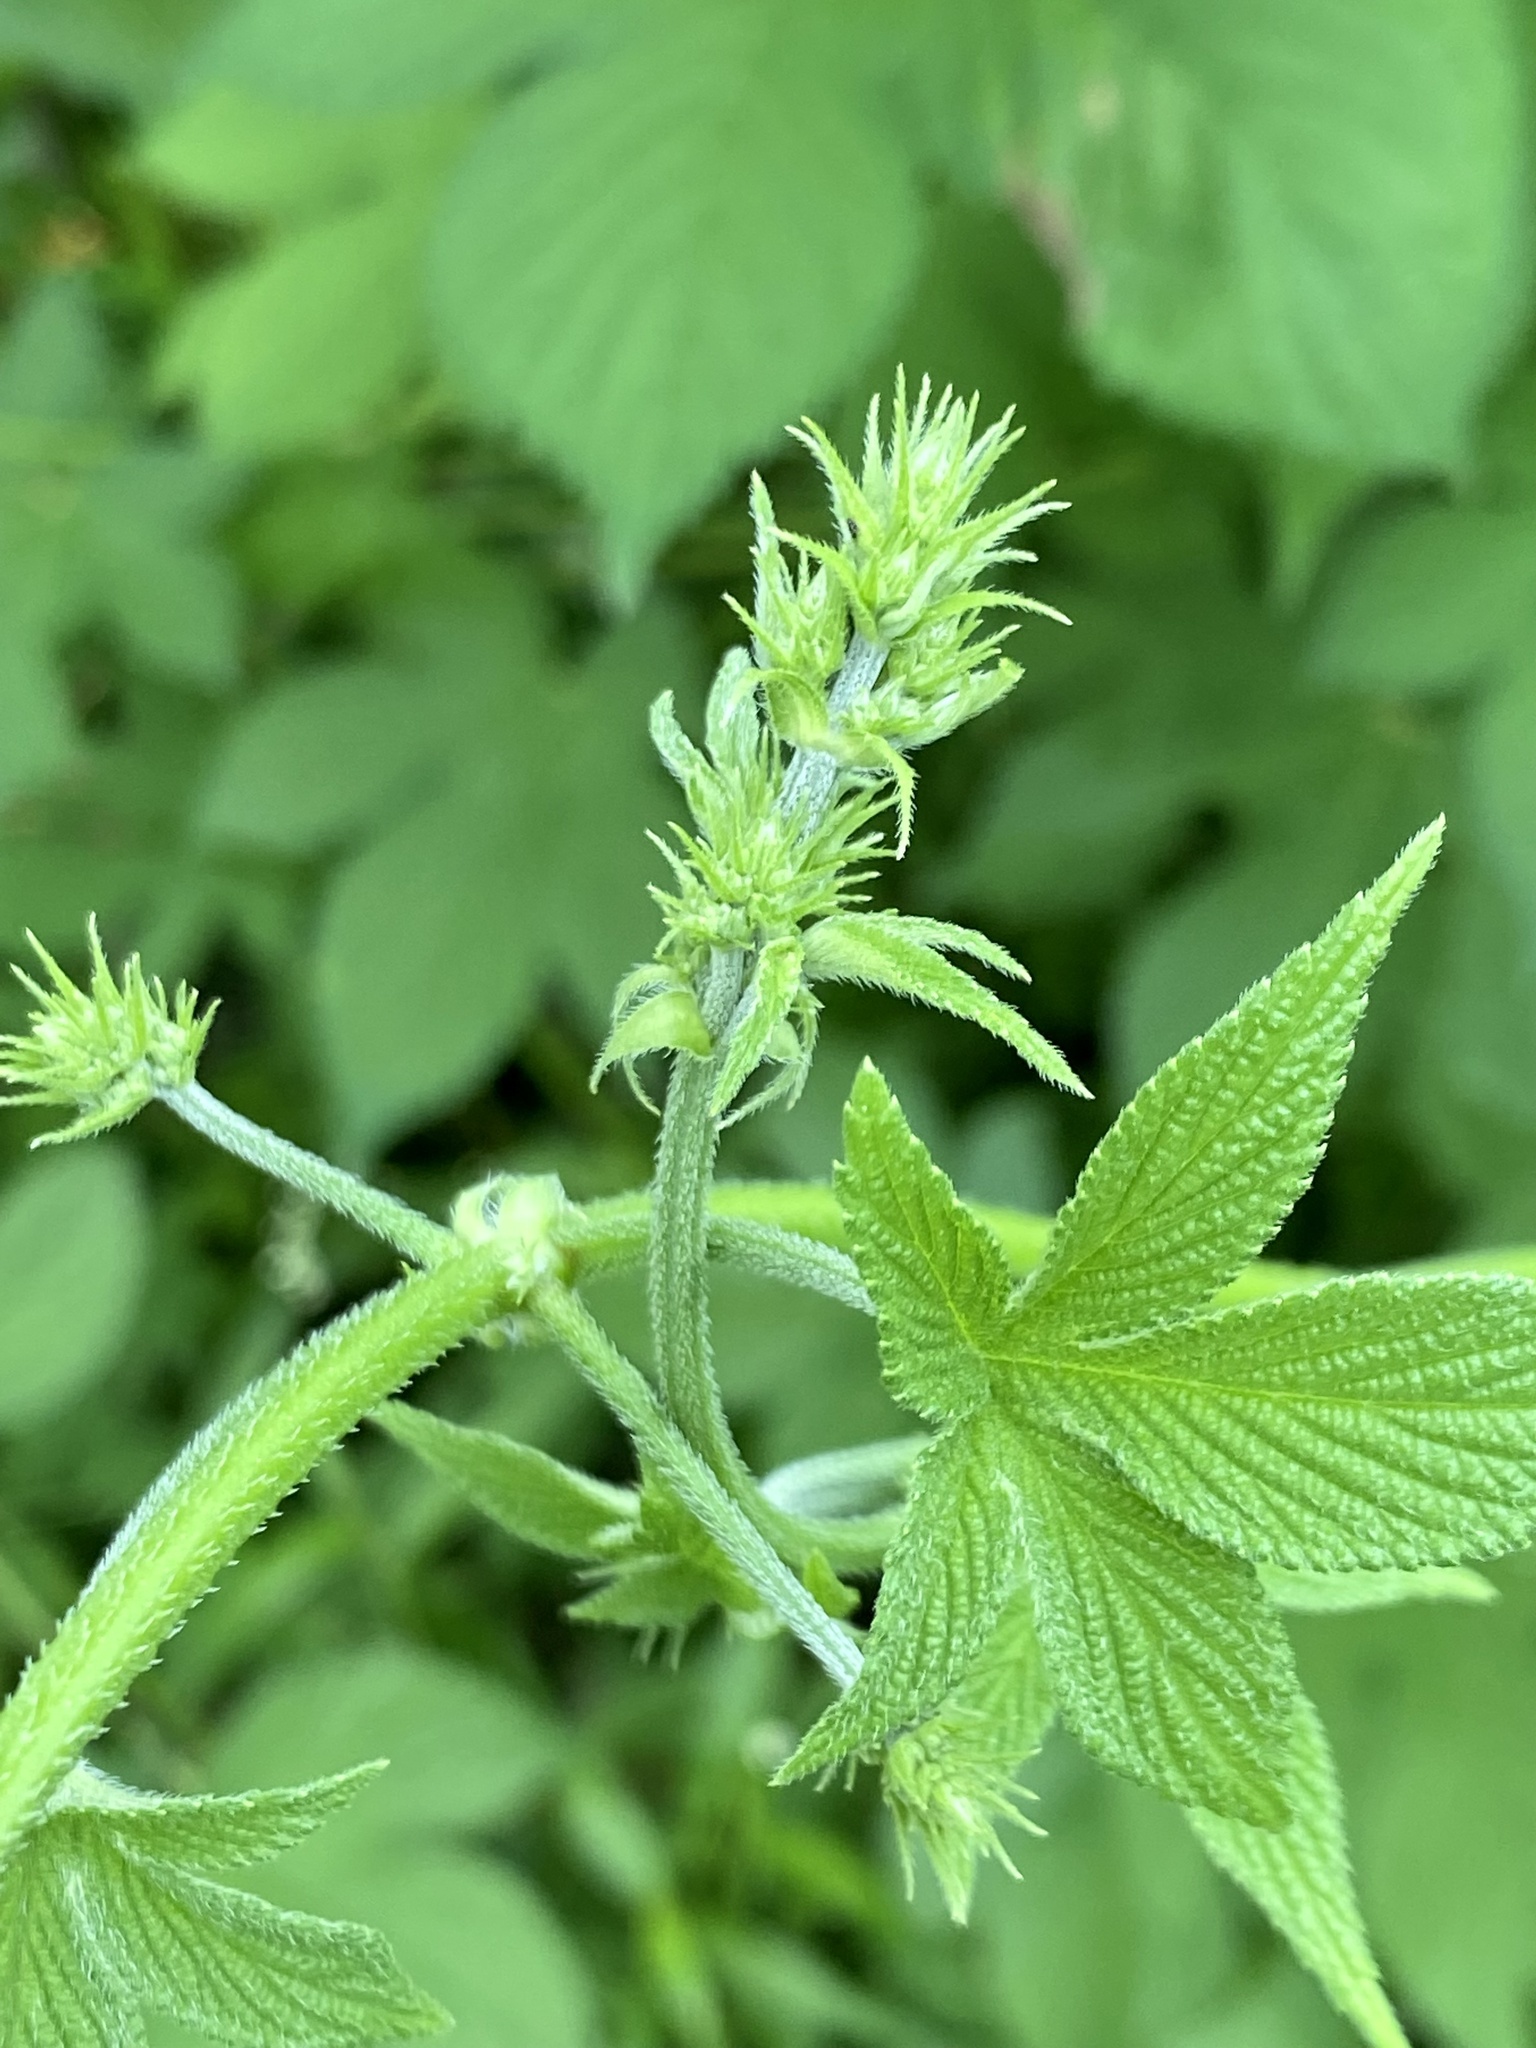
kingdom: Plantae
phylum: Tracheophyta
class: Magnoliopsida
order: Rosales
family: Cannabaceae
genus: Humulus
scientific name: Humulus scandens
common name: Japanese hop
